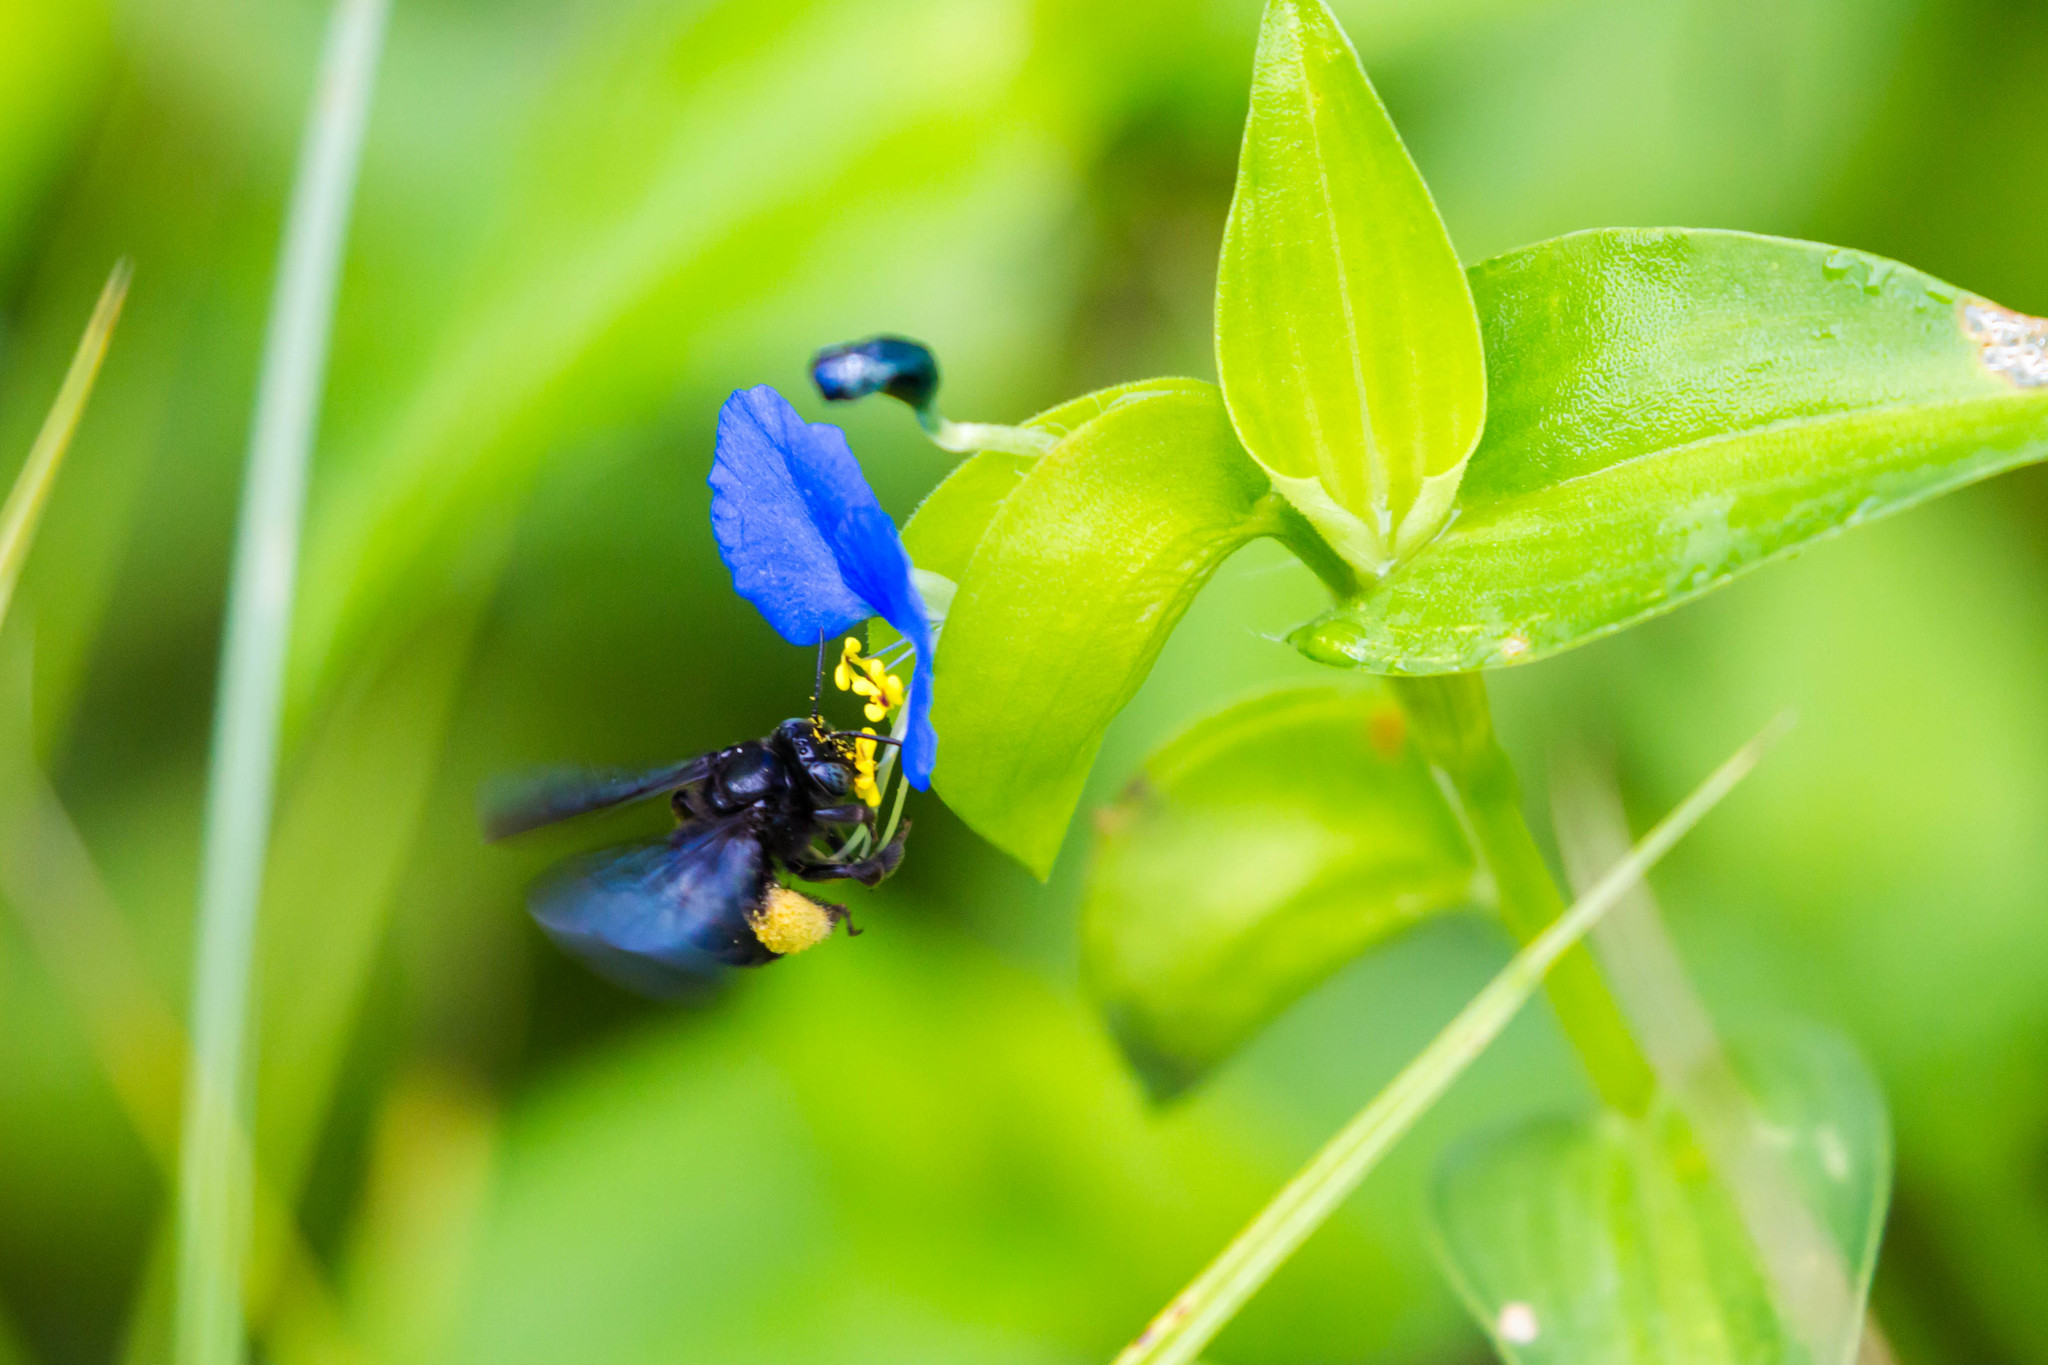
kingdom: Animalia
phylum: Arthropoda
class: Insecta
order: Hymenoptera
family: Apidae
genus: Melissodes
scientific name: Melissodes bimaculatus
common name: Two-spotted long-horned bee
